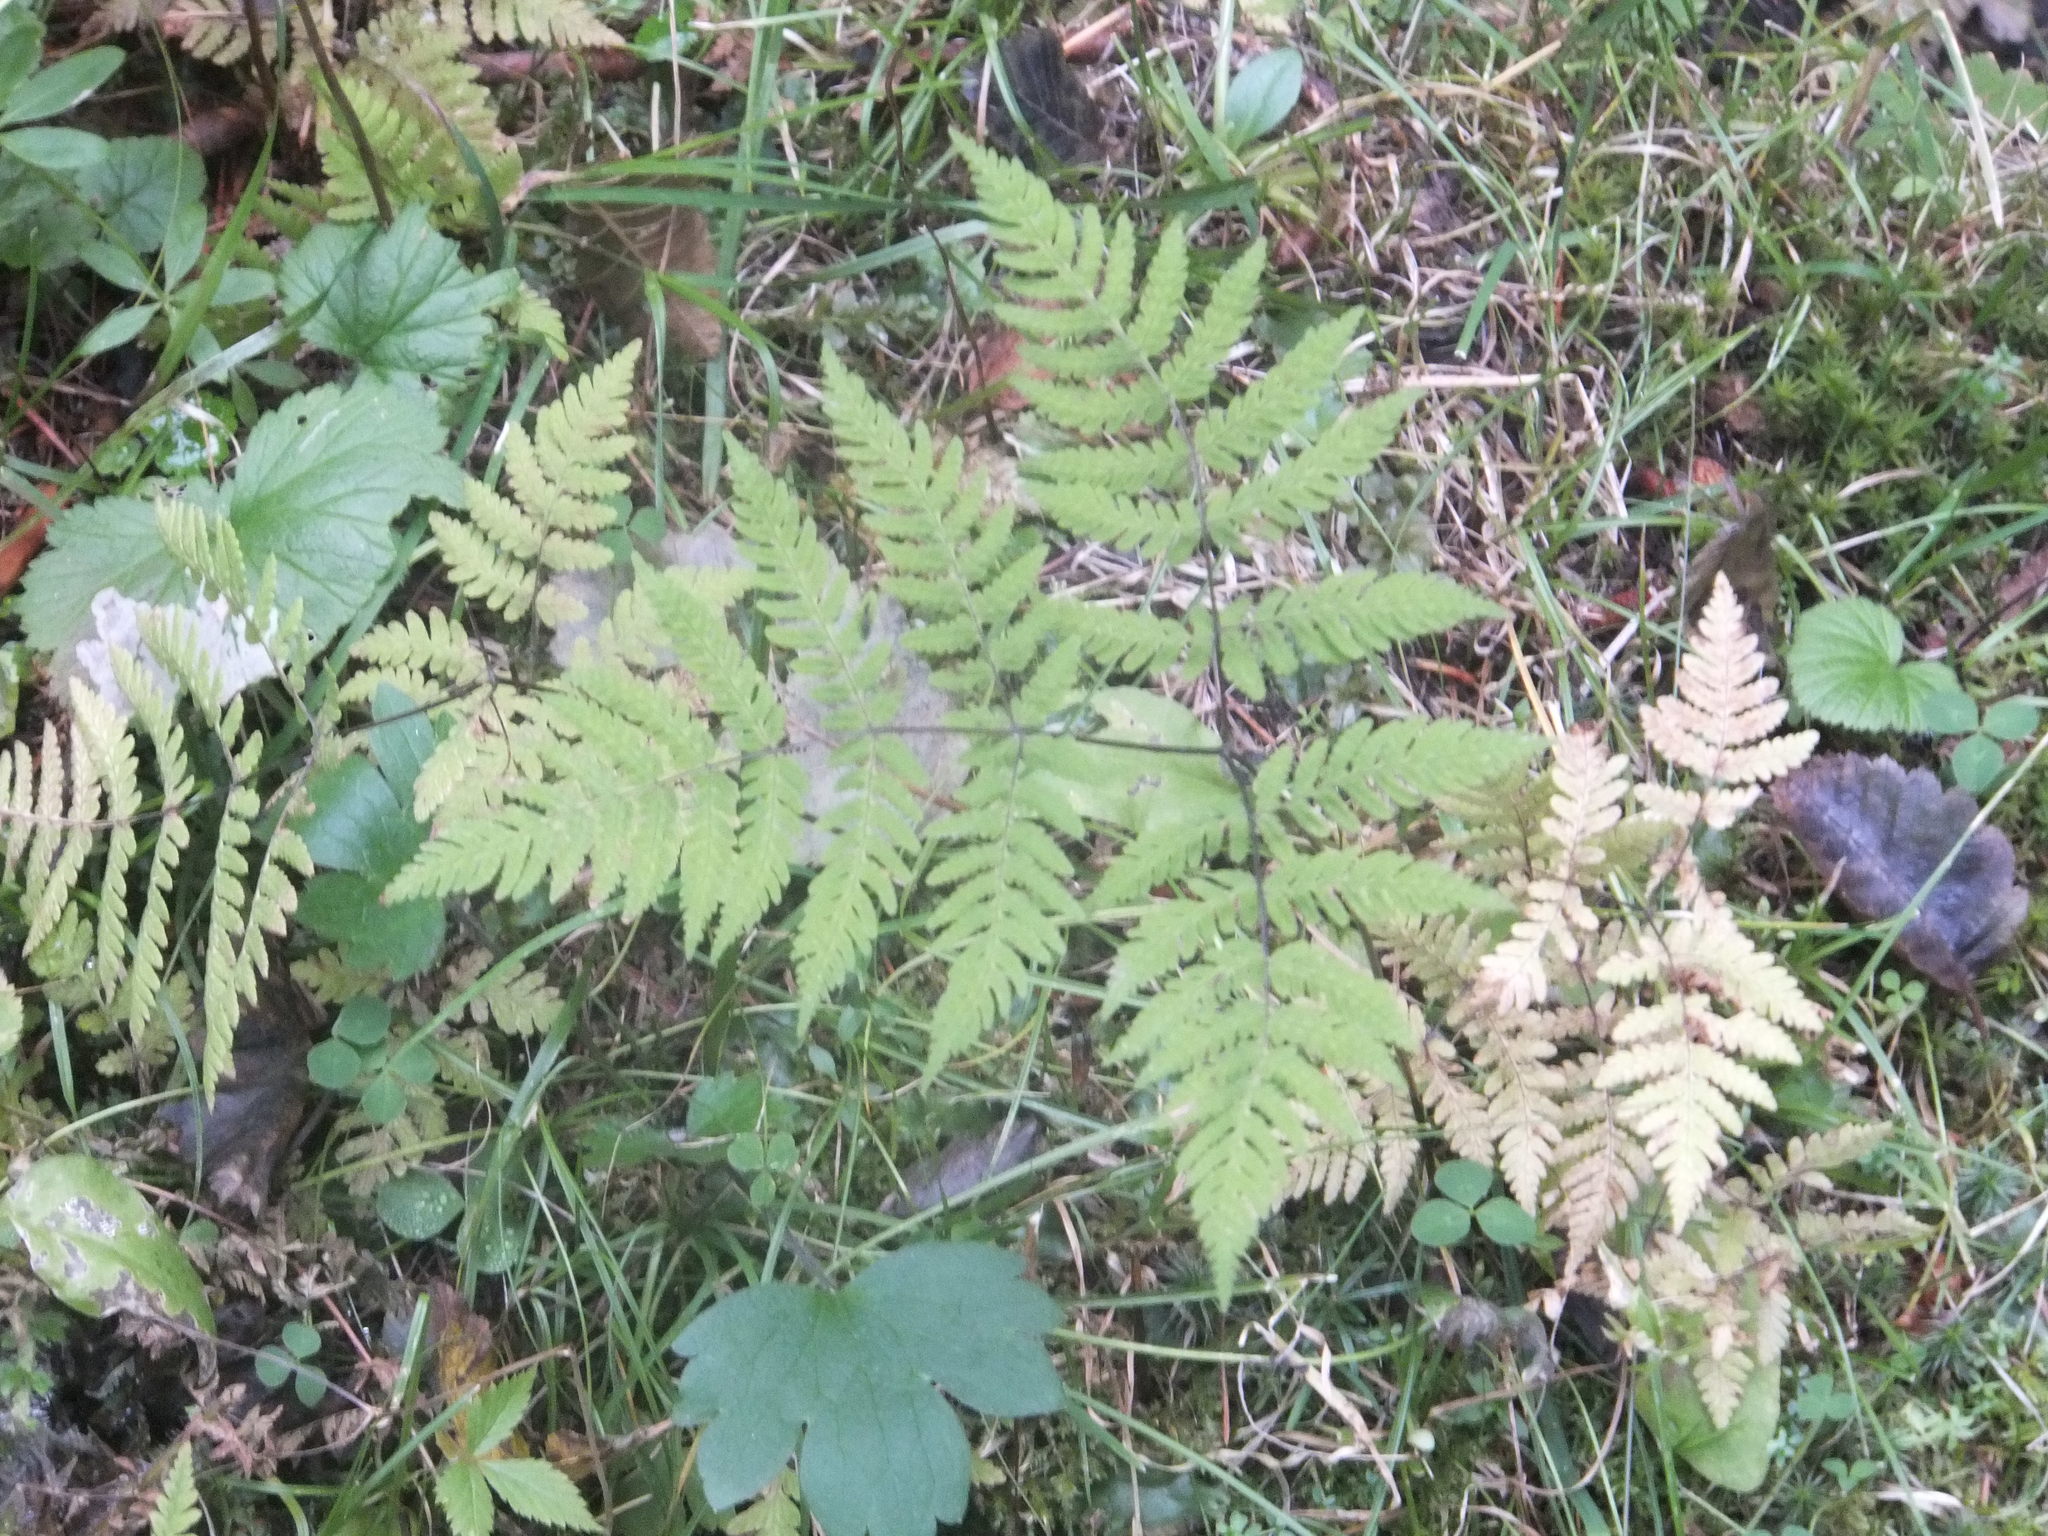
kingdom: Plantae
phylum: Tracheophyta
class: Polypodiopsida
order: Polypodiales
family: Cystopteridaceae
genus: Gymnocarpium
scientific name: Gymnocarpium dryopteris
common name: Oak fern
